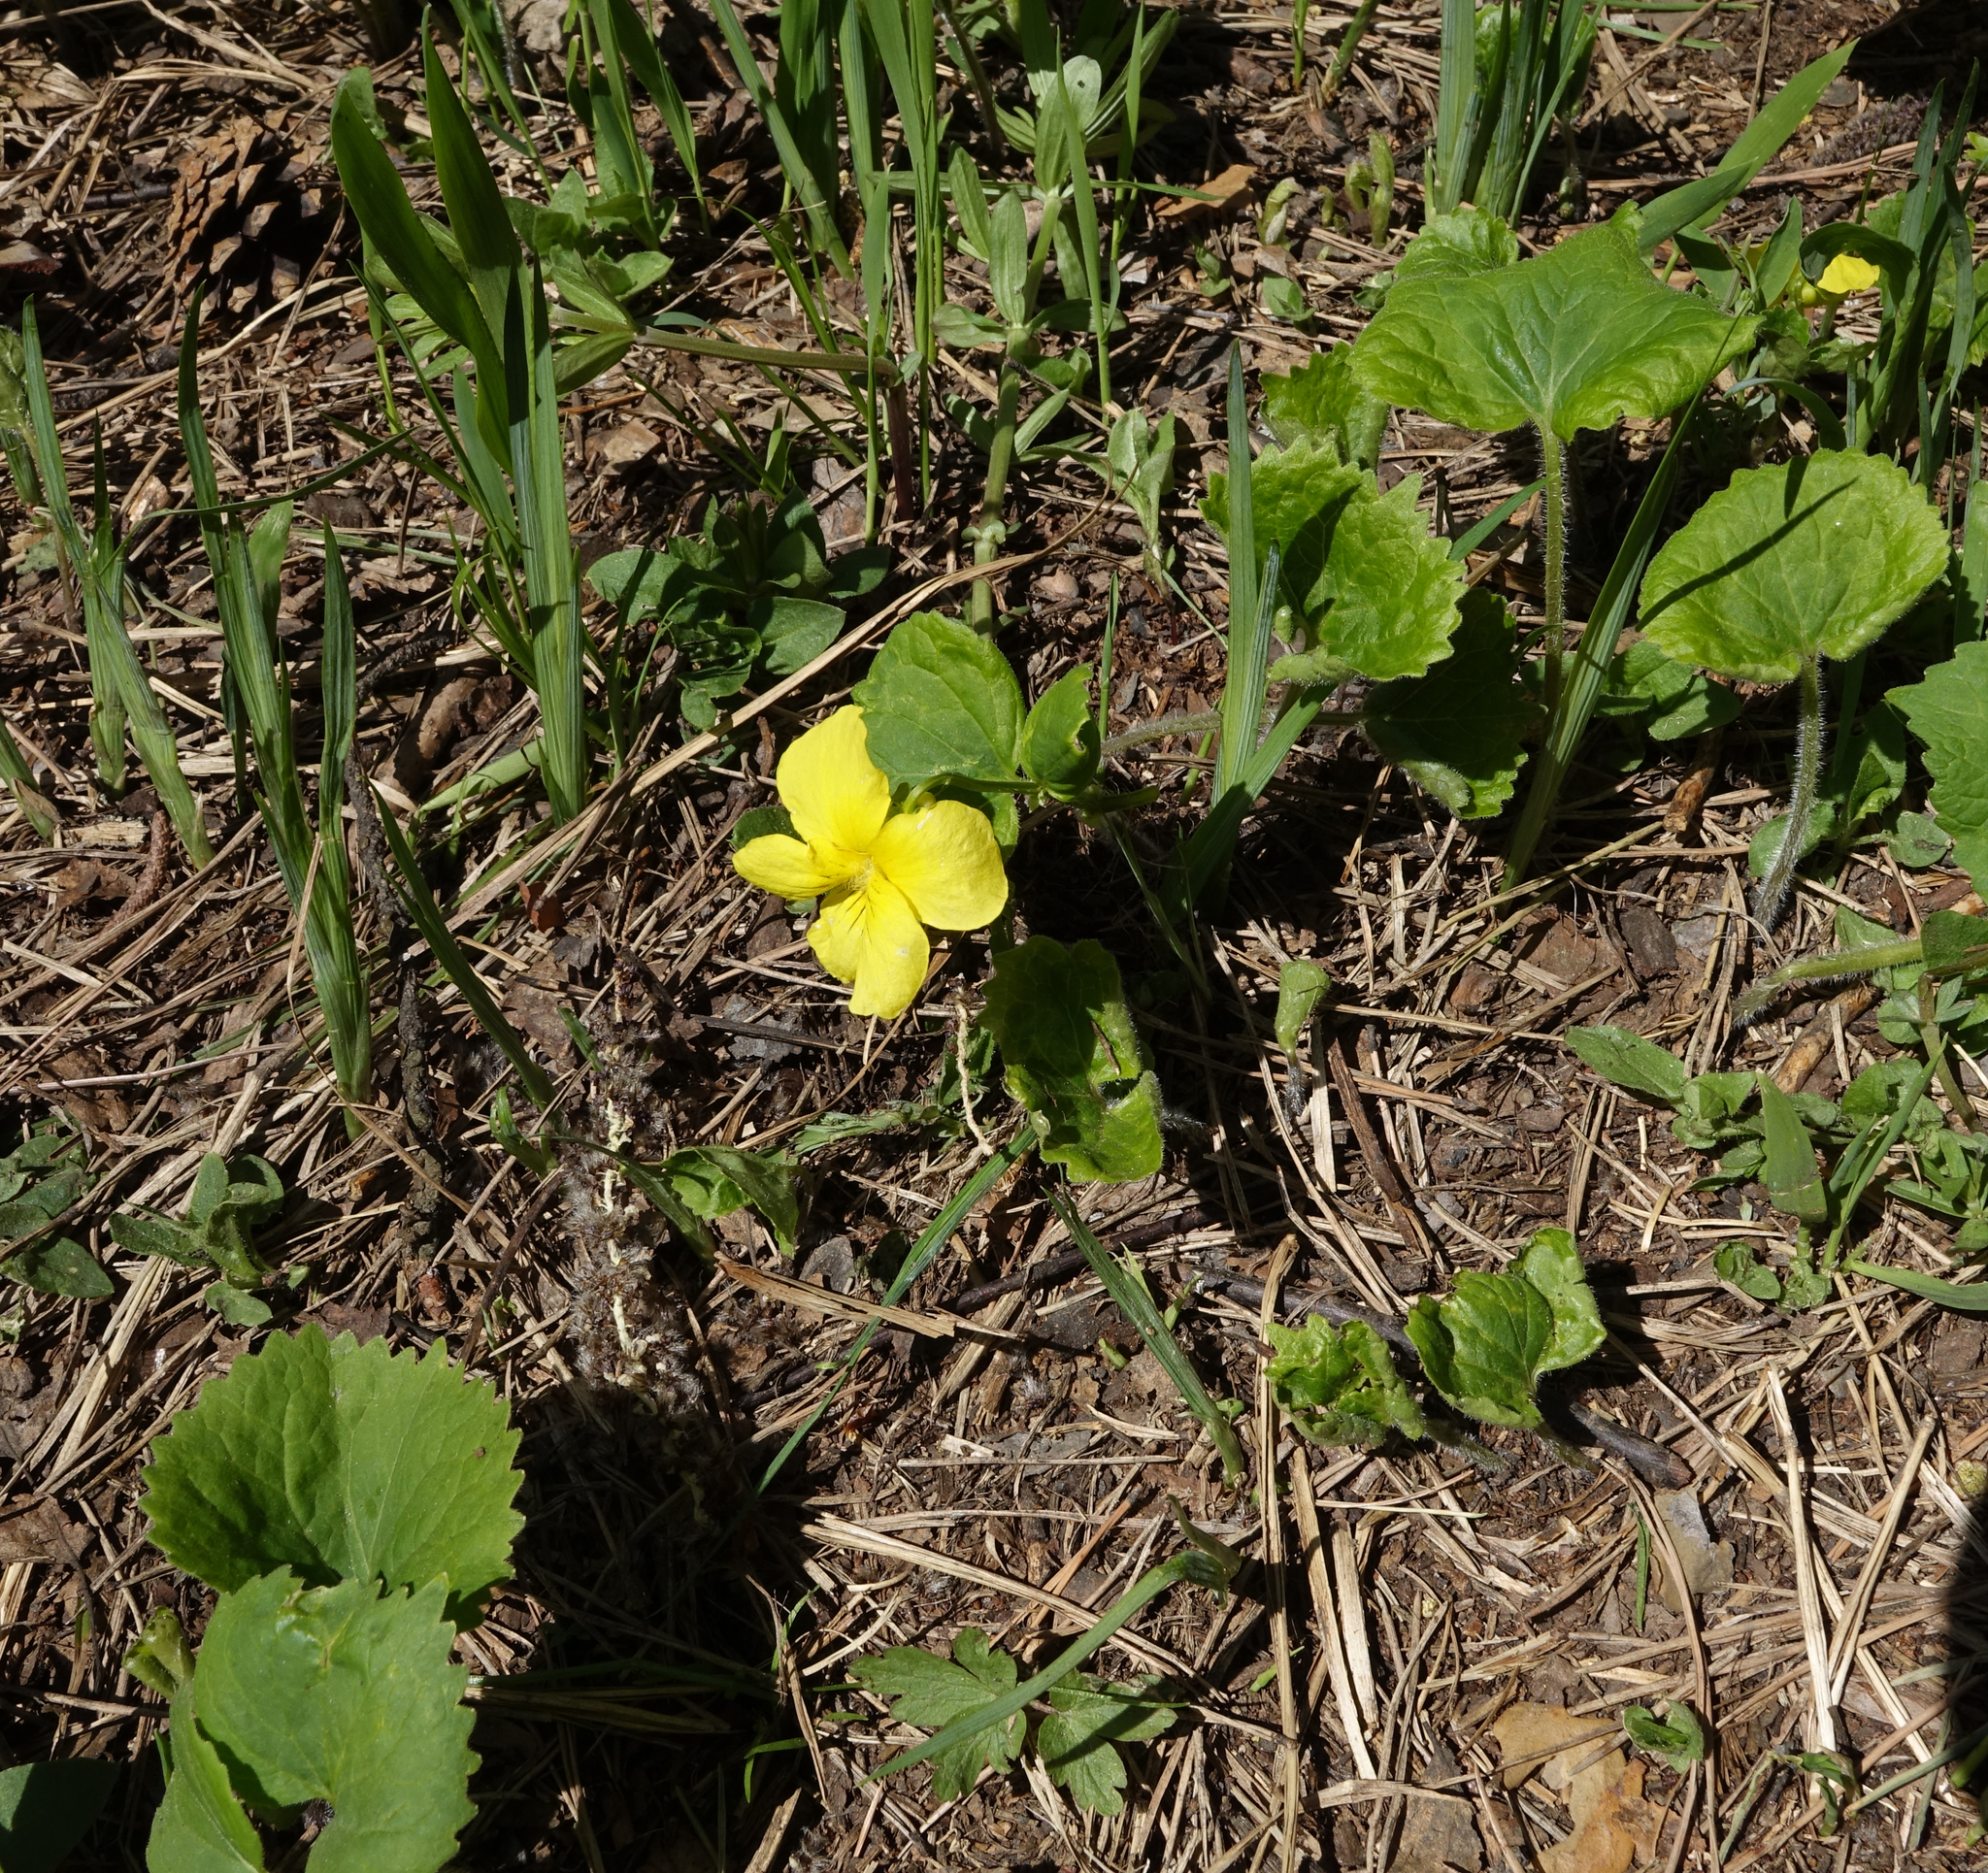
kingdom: Plantae
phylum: Tracheophyta
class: Magnoliopsida
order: Malpighiales
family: Violaceae
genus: Viola
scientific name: Viola uniflora
